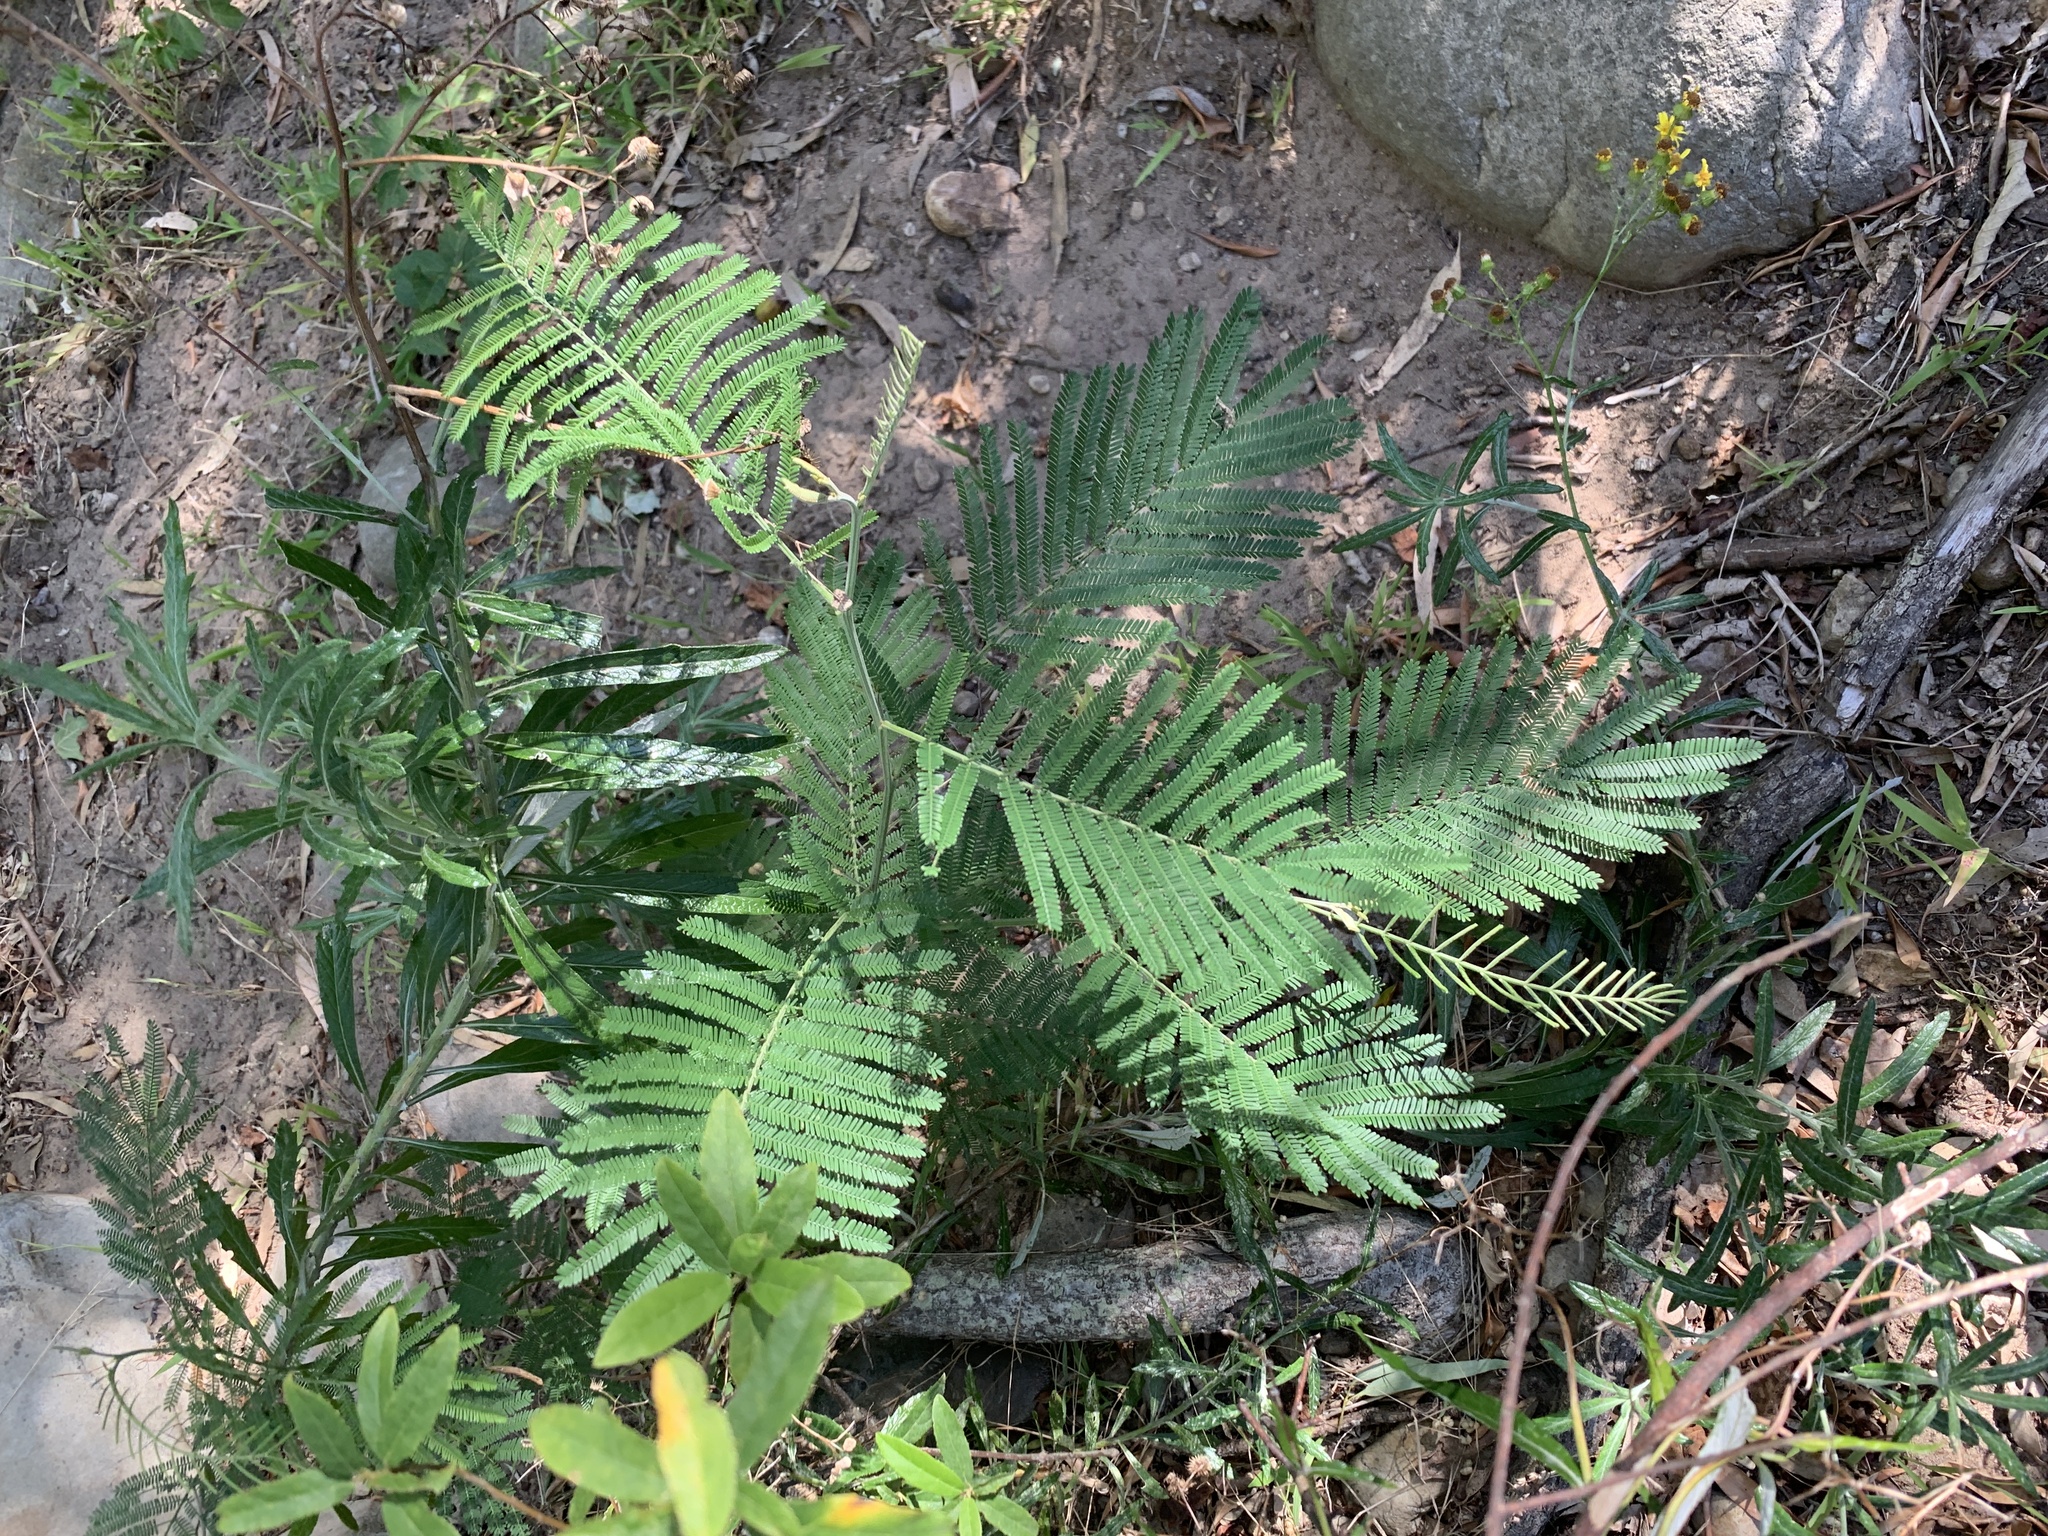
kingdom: Plantae
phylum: Tracheophyta
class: Magnoliopsida
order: Fabales
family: Fabaceae
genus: Acacia
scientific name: Acacia mearnsii
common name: Black wattle
